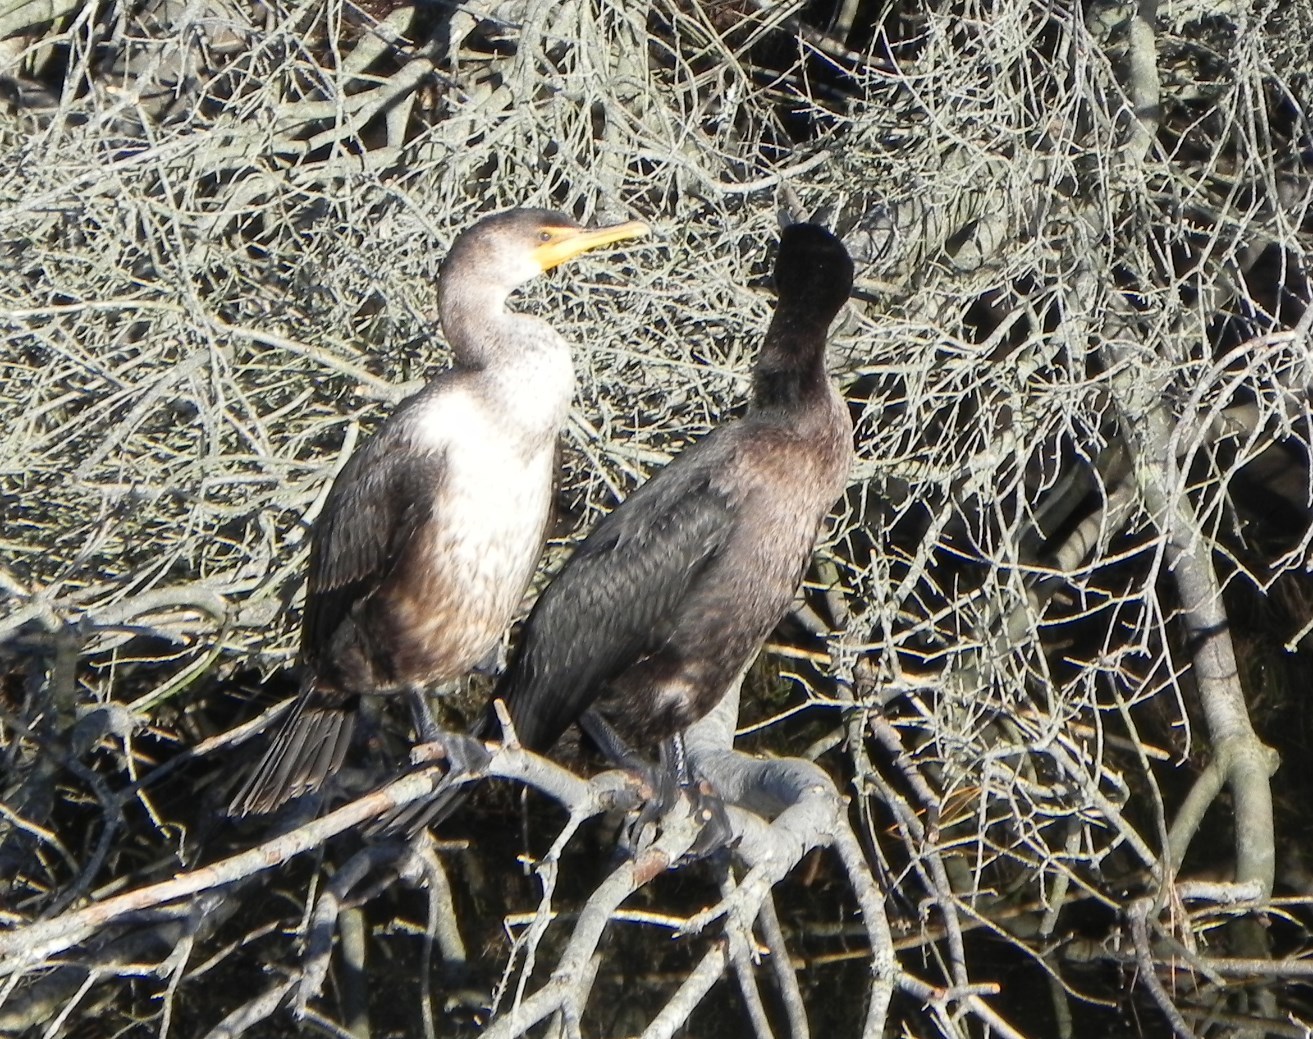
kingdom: Animalia
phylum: Chordata
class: Aves
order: Suliformes
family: Phalacrocoracidae
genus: Phalacrocorax
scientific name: Phalacrocorax auritus
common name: Double-crested cormorant
